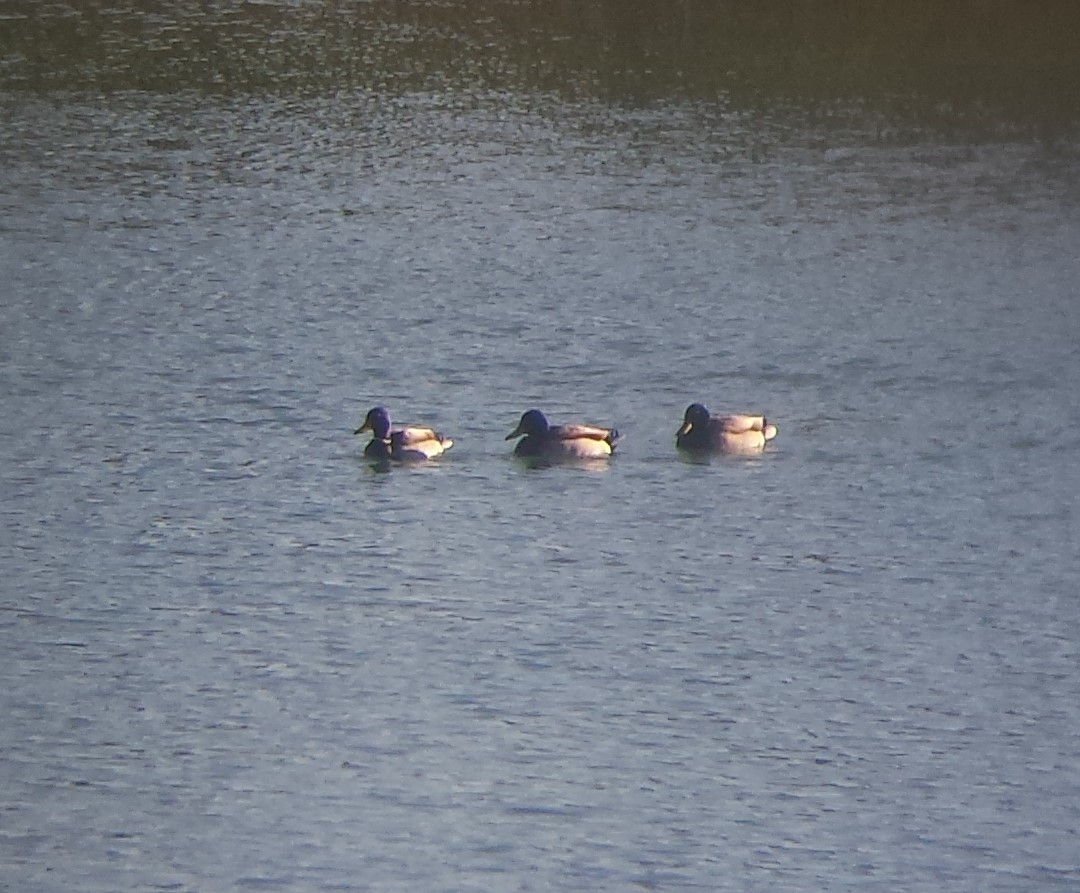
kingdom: Animalia
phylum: Chordata
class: Aves
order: Anseriformes
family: Anatidae
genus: Anas
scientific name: Anas platyrhynchos
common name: Mallard
